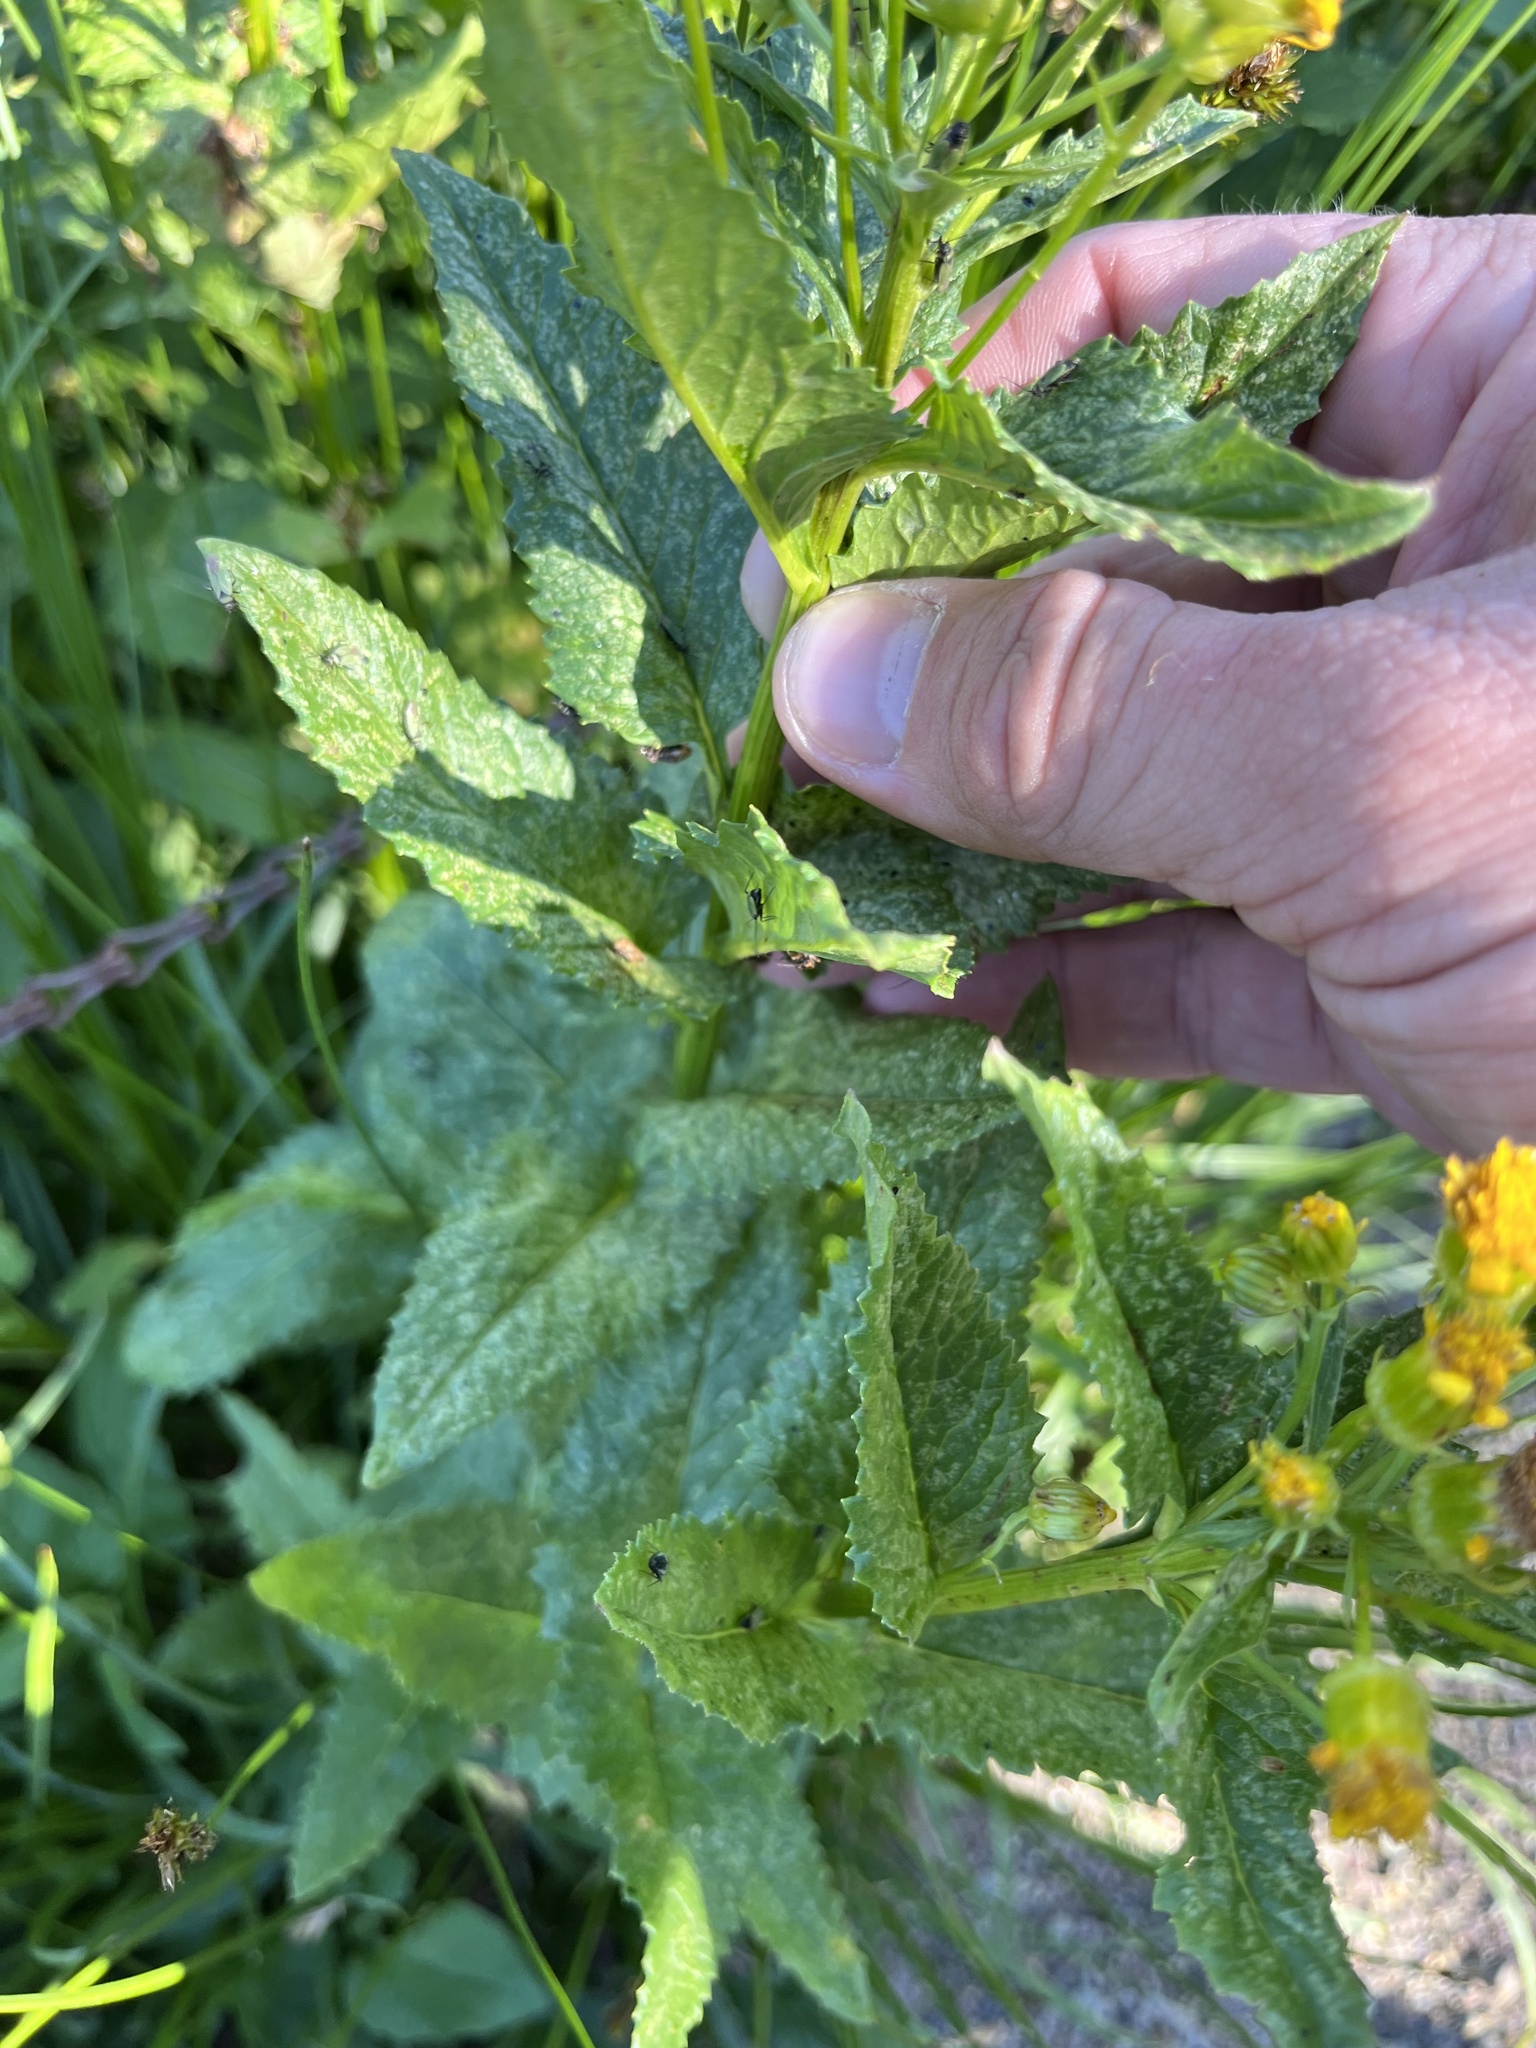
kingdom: Plantae
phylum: Tracheophyta
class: Magnoliopsida
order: Asterales
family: Asteraceae
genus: Senecio
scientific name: Senecio triangularis
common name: Arrowleaf butterweed
